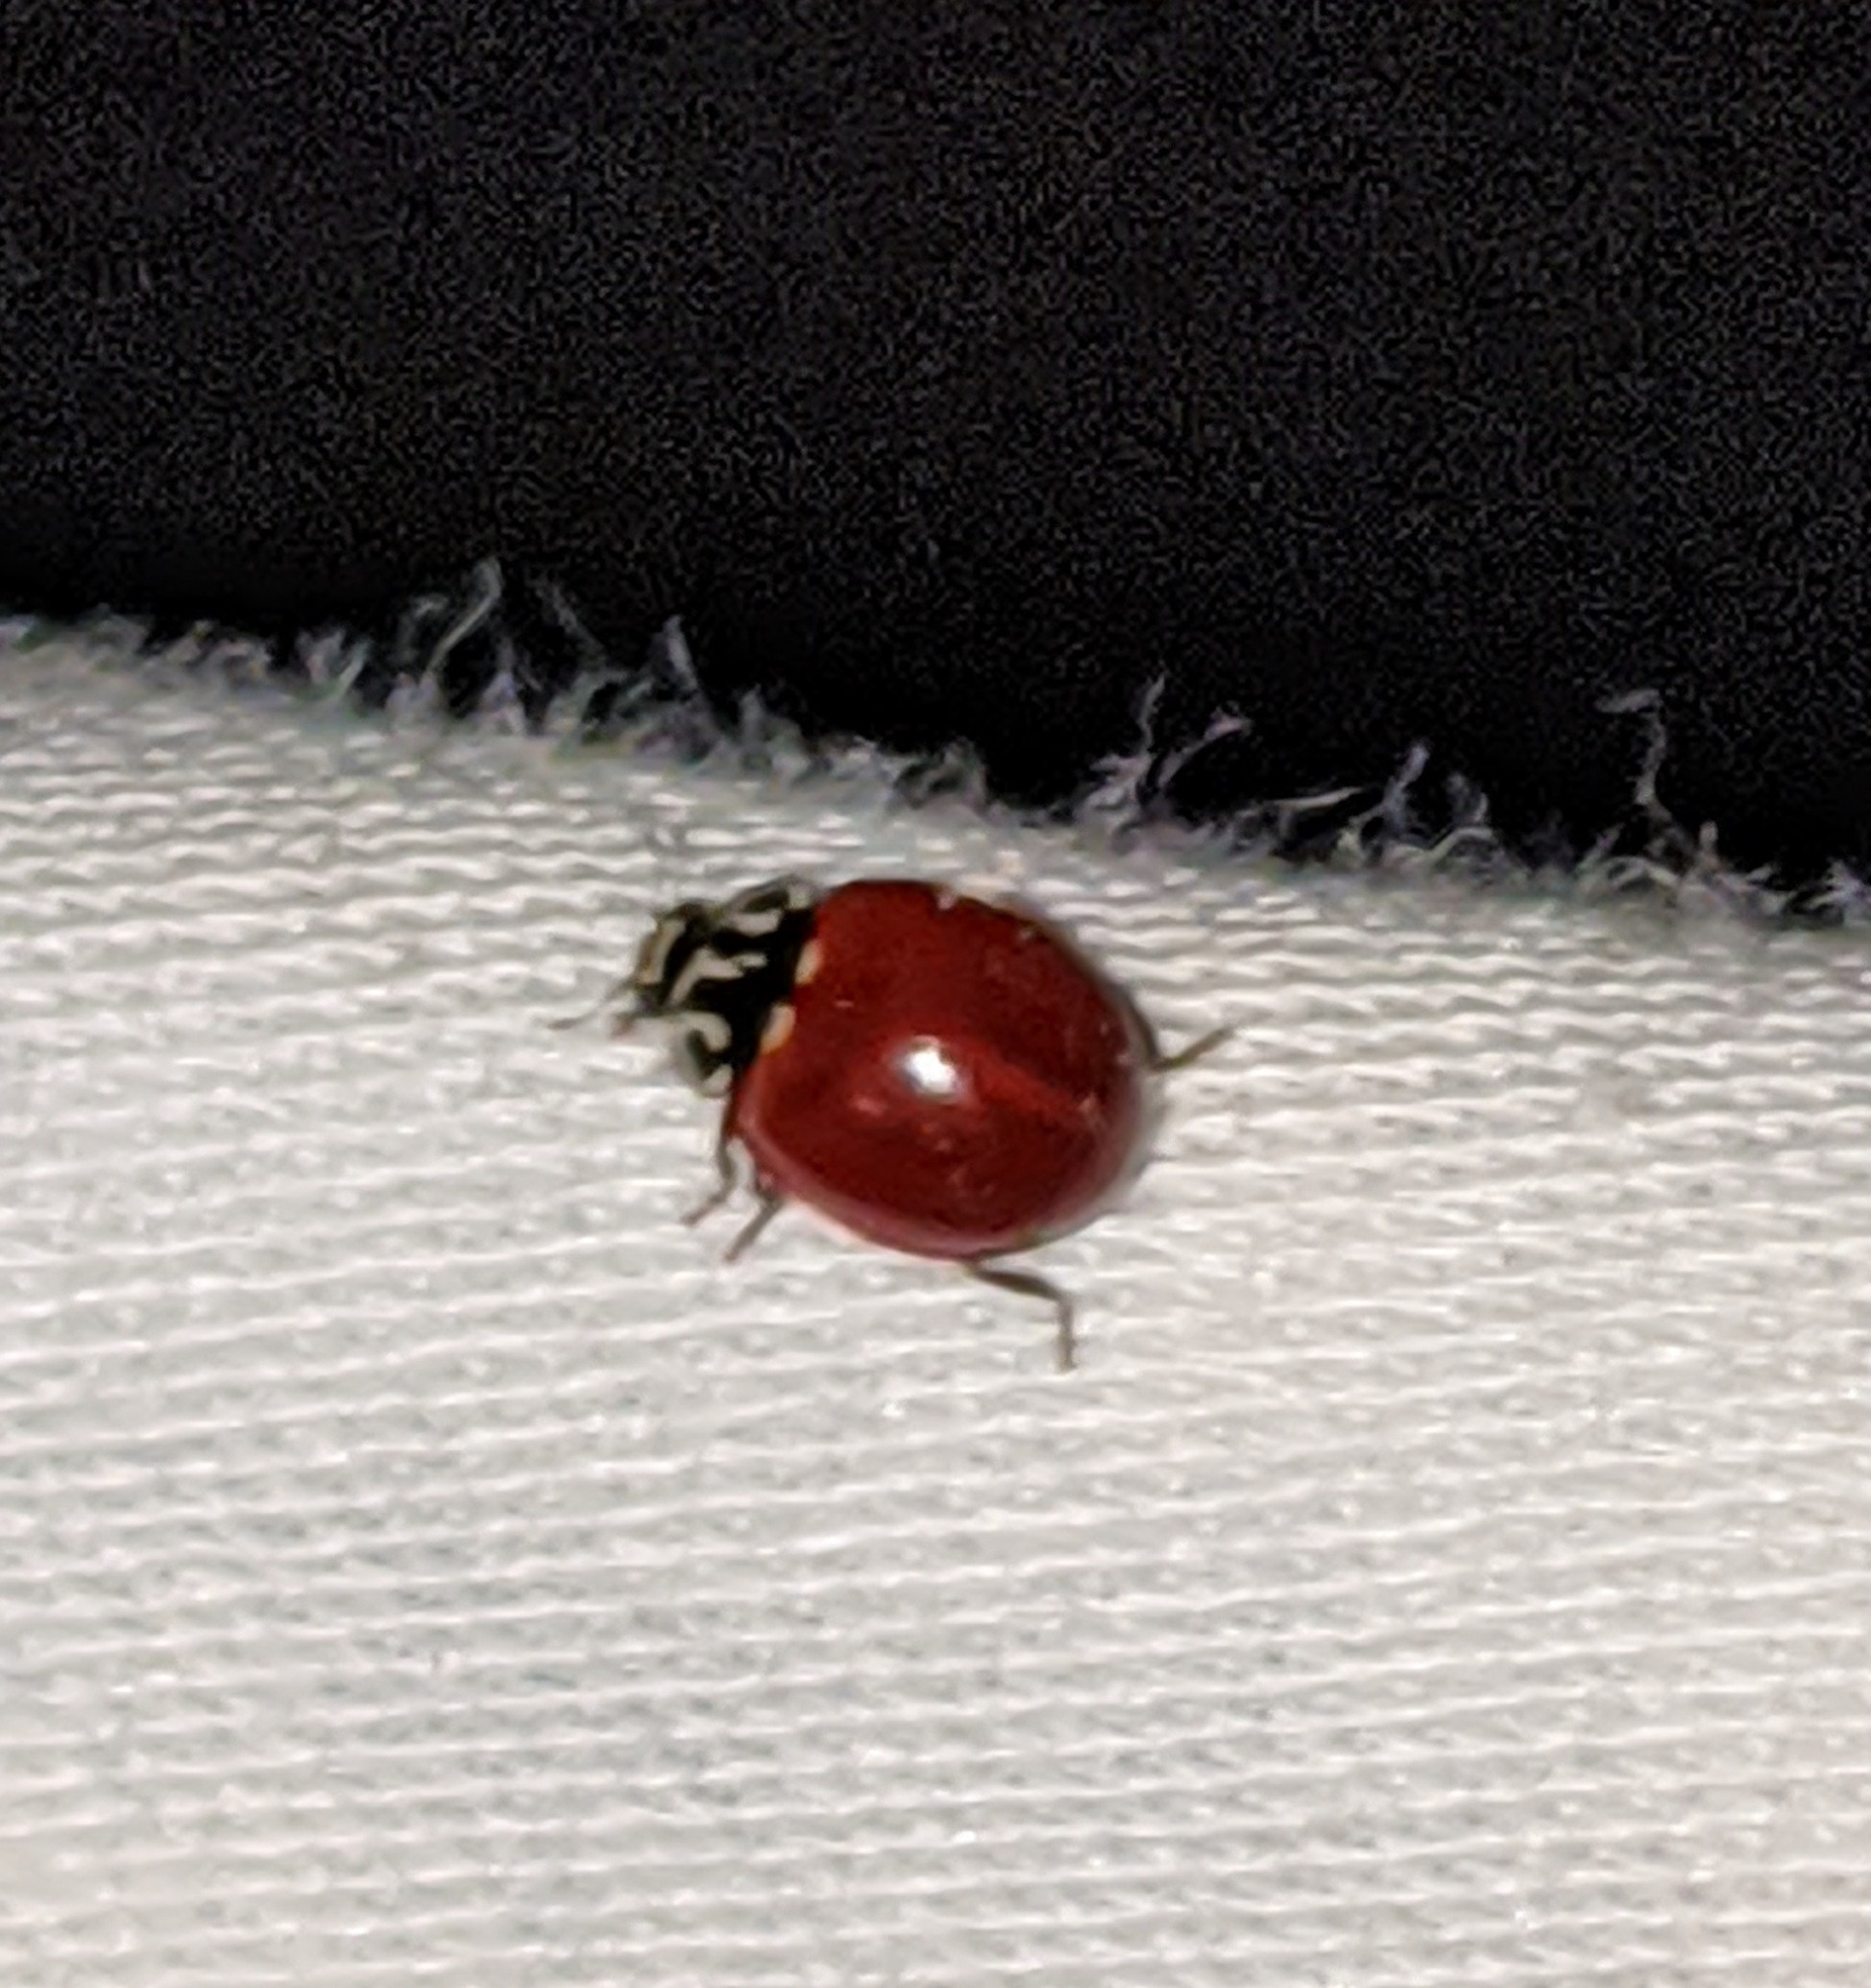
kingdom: Animalia
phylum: Arthropoda
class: Insecta
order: Coleoptera
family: Coccinellidae
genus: Cycloneda
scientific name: Cycloneda polita
